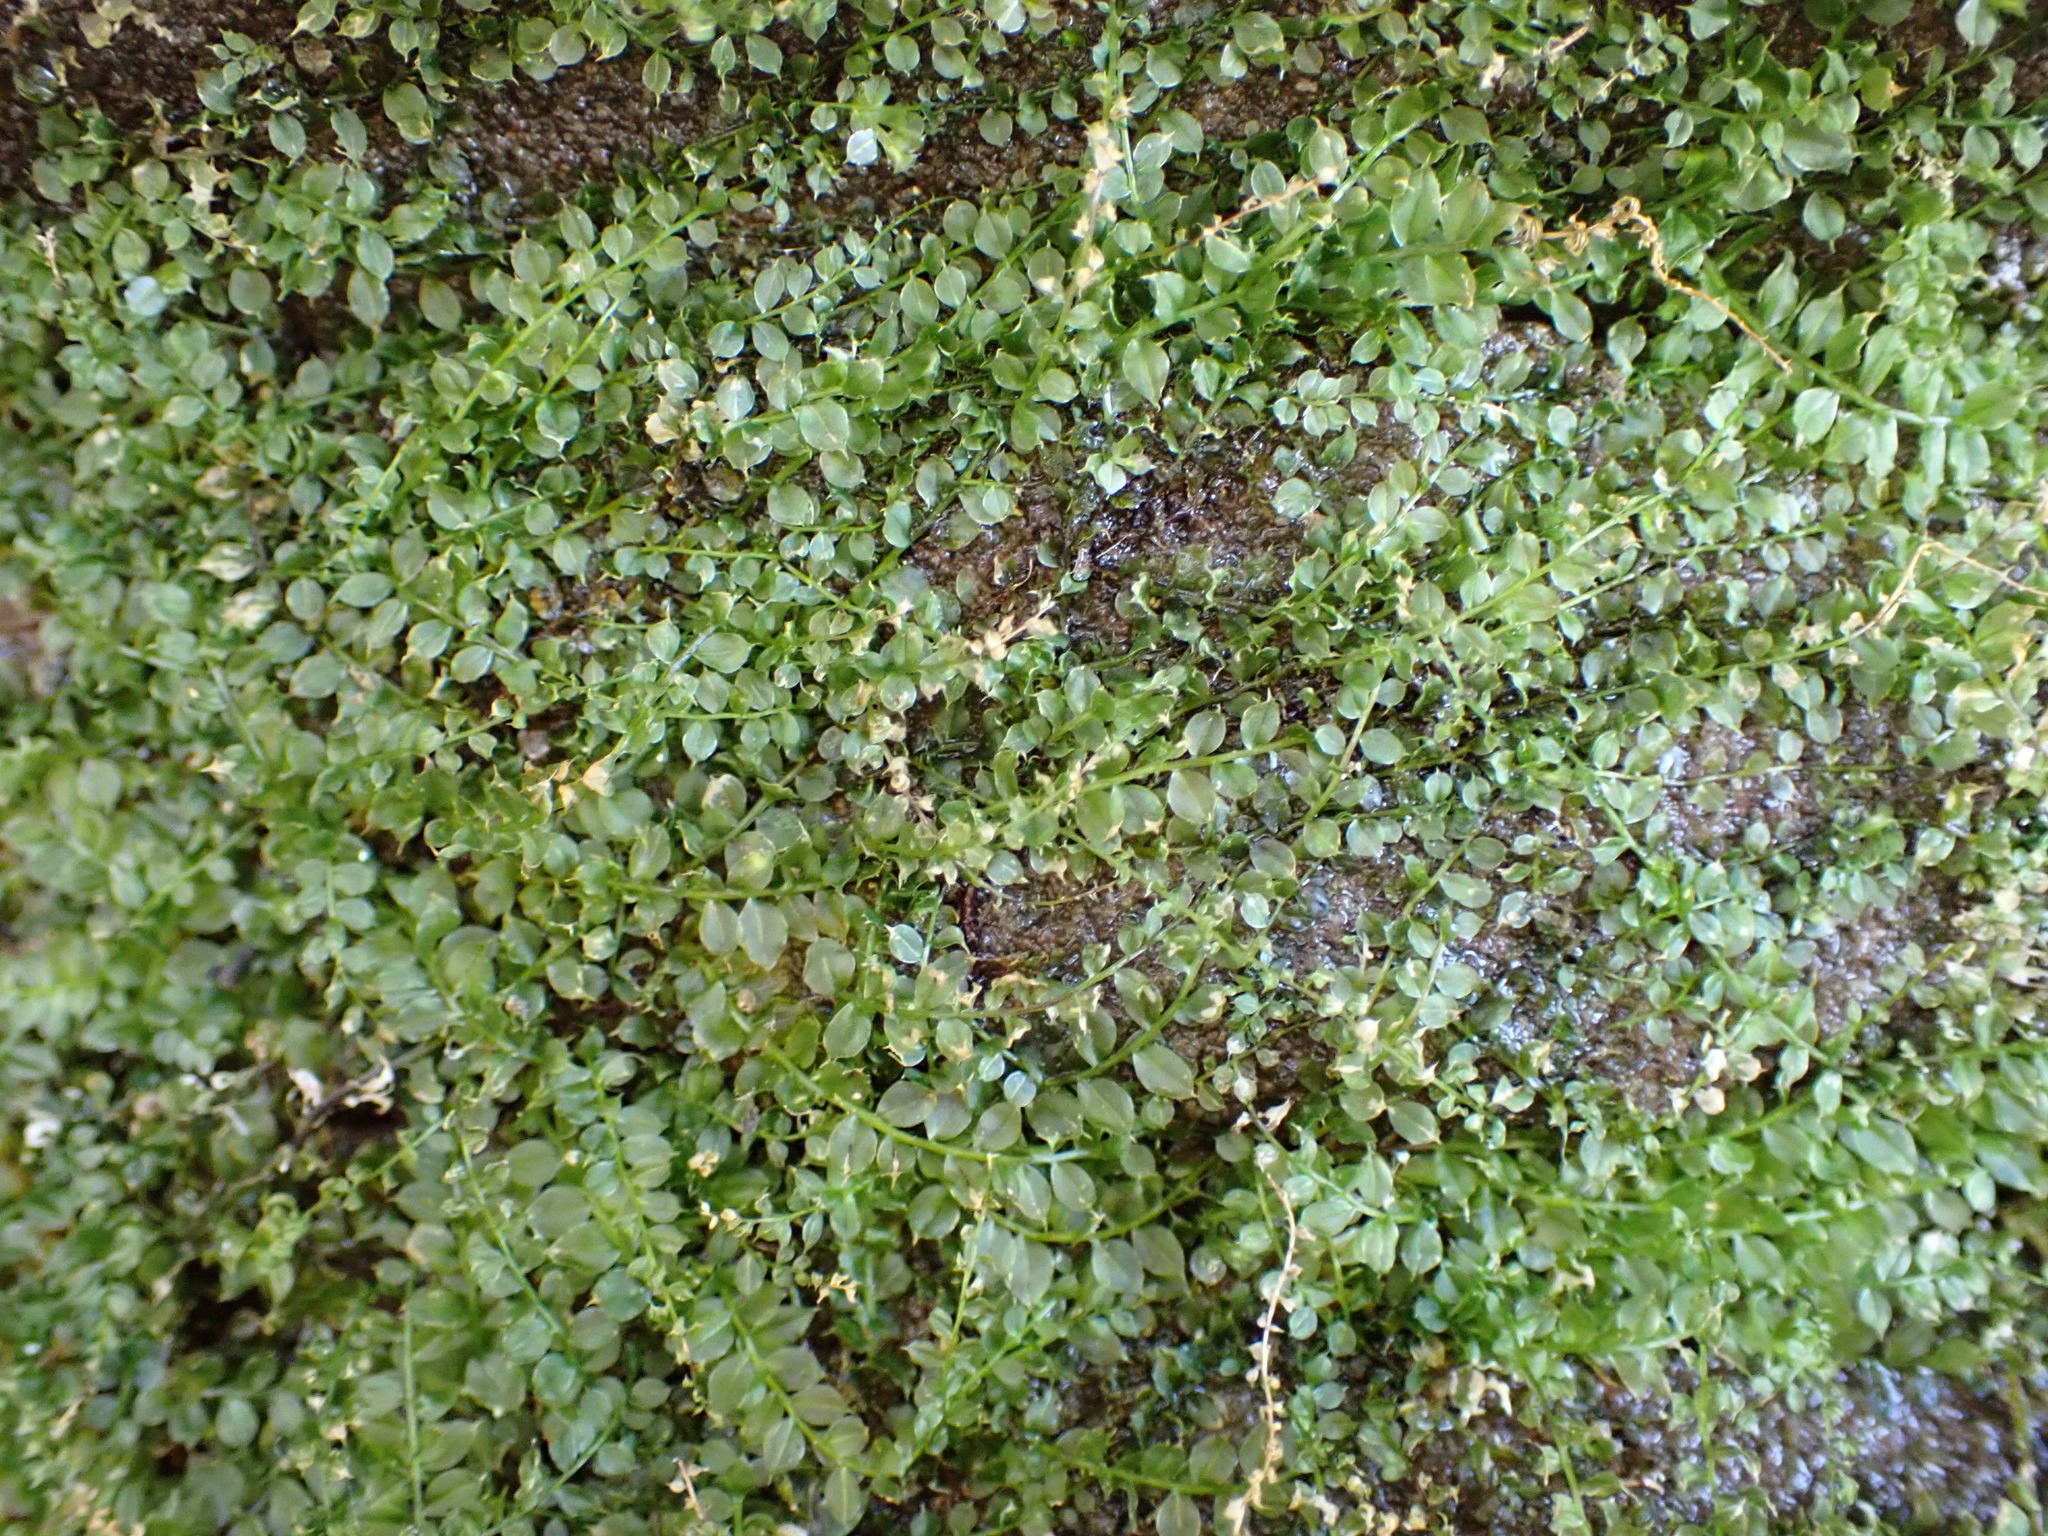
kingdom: Plantae
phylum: Bryophyta
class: Bryopsida
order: Bryales
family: Mniaceae
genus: Plagiomnium
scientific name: Plagiomnium cuspidatum
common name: Woodsy leafy moss
